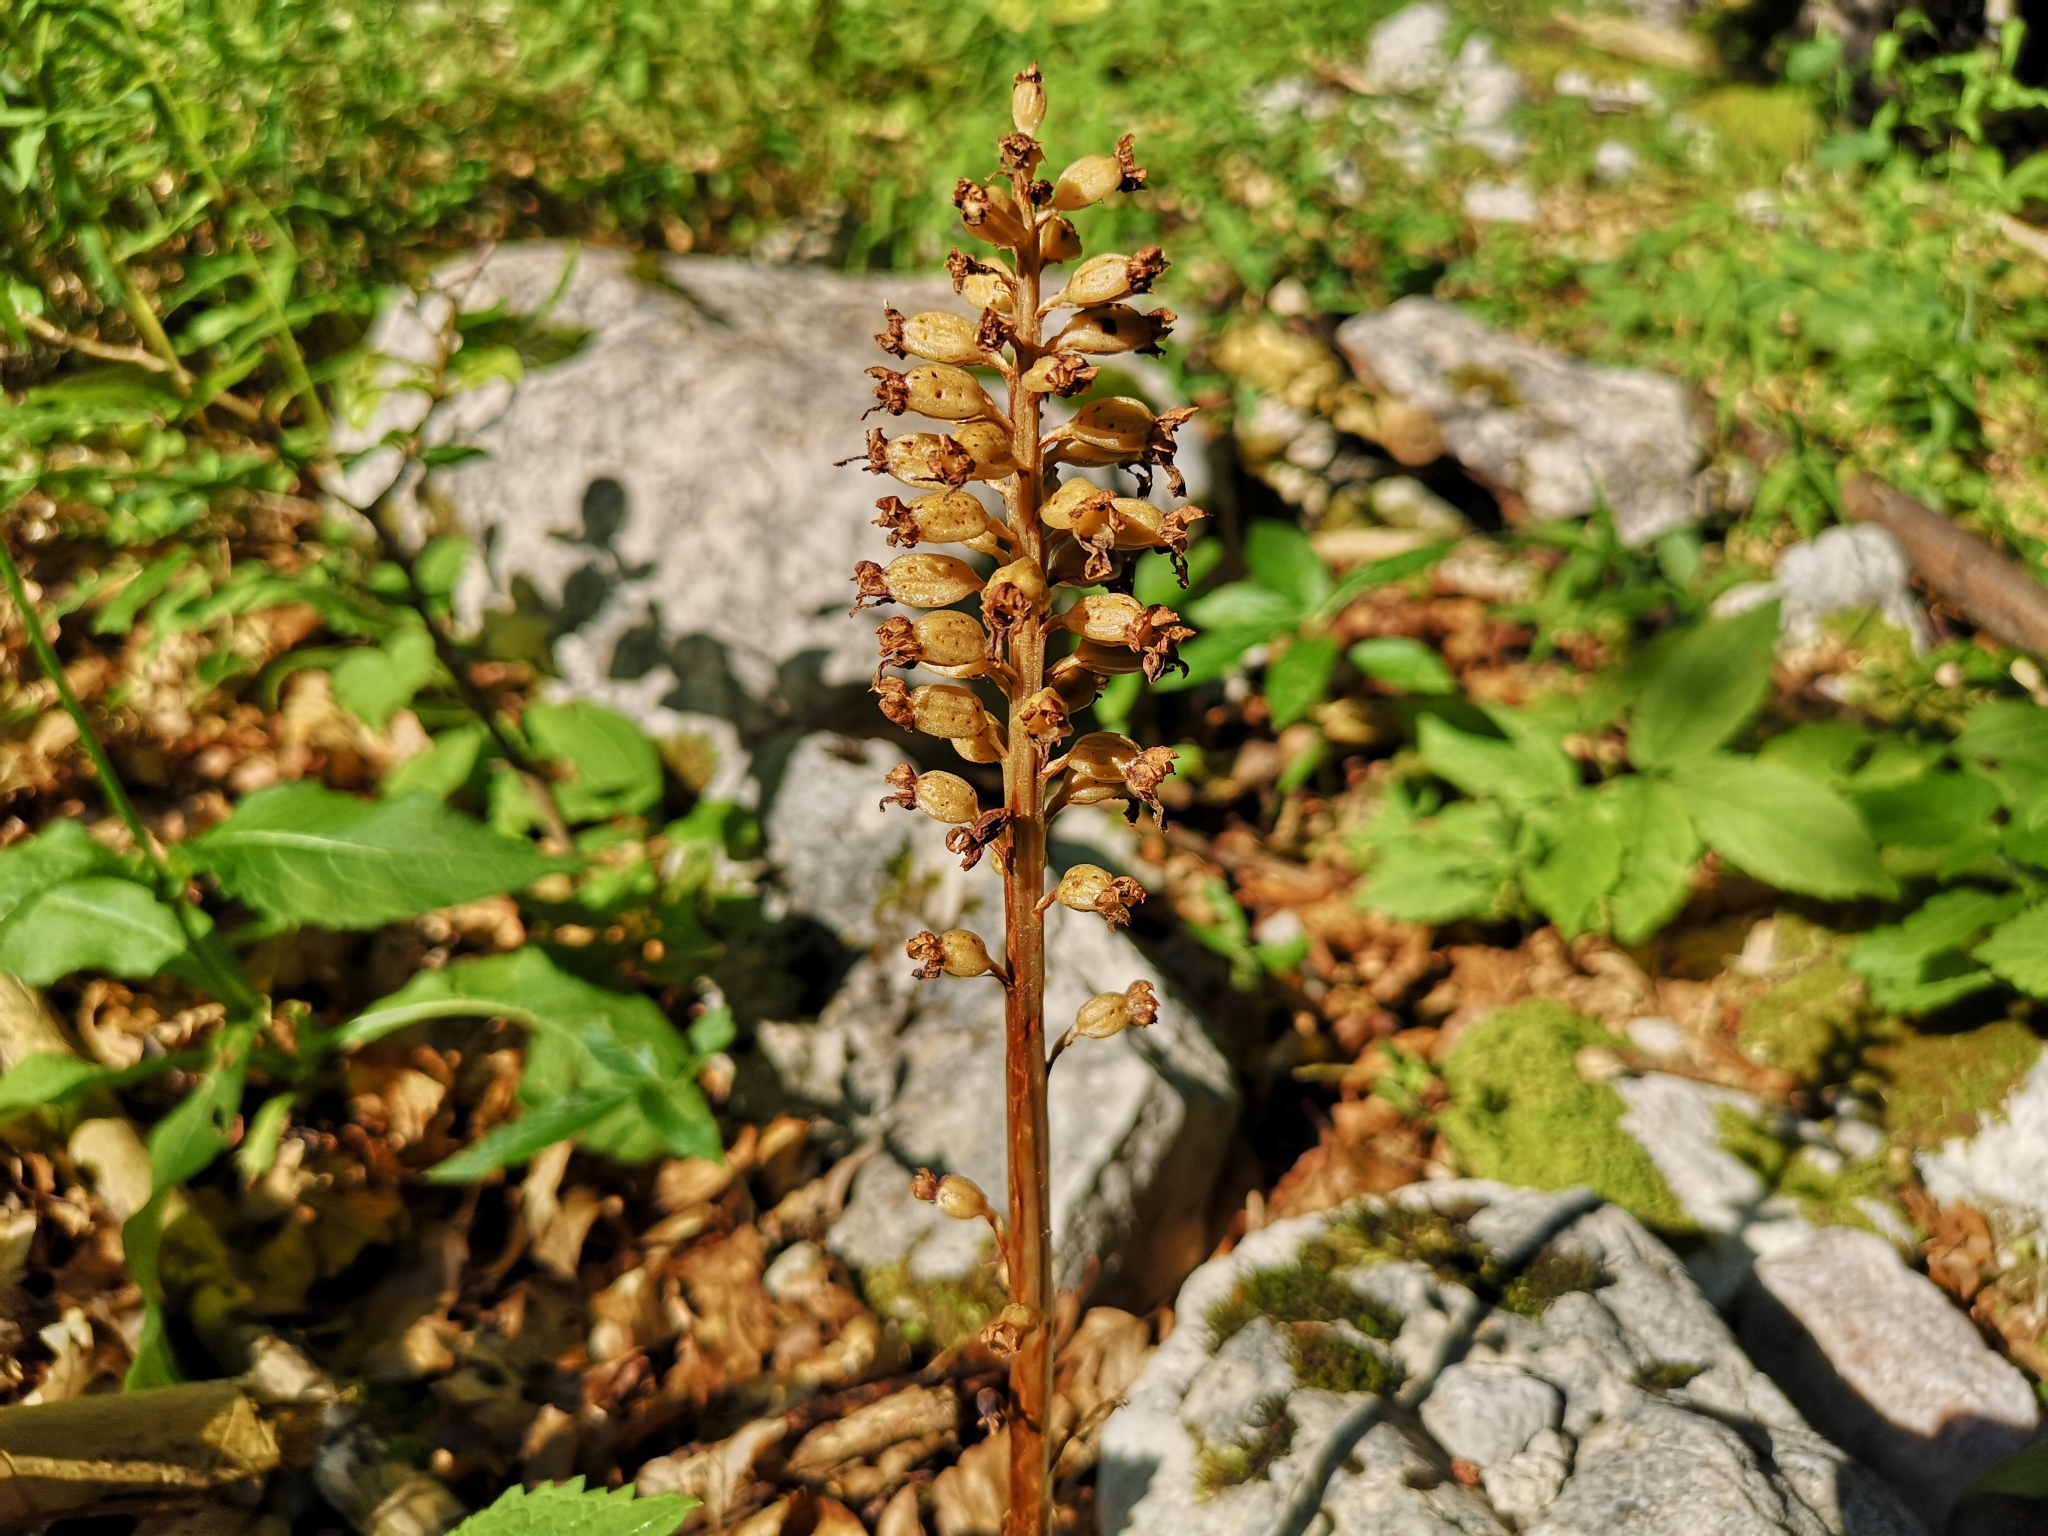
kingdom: Plantae
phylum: Tracheophyta
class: Liliopsida
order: Asparagales
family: Orchidaceae
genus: Neottia
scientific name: Neottia nidus-avis
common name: Bird's-nest orchid
